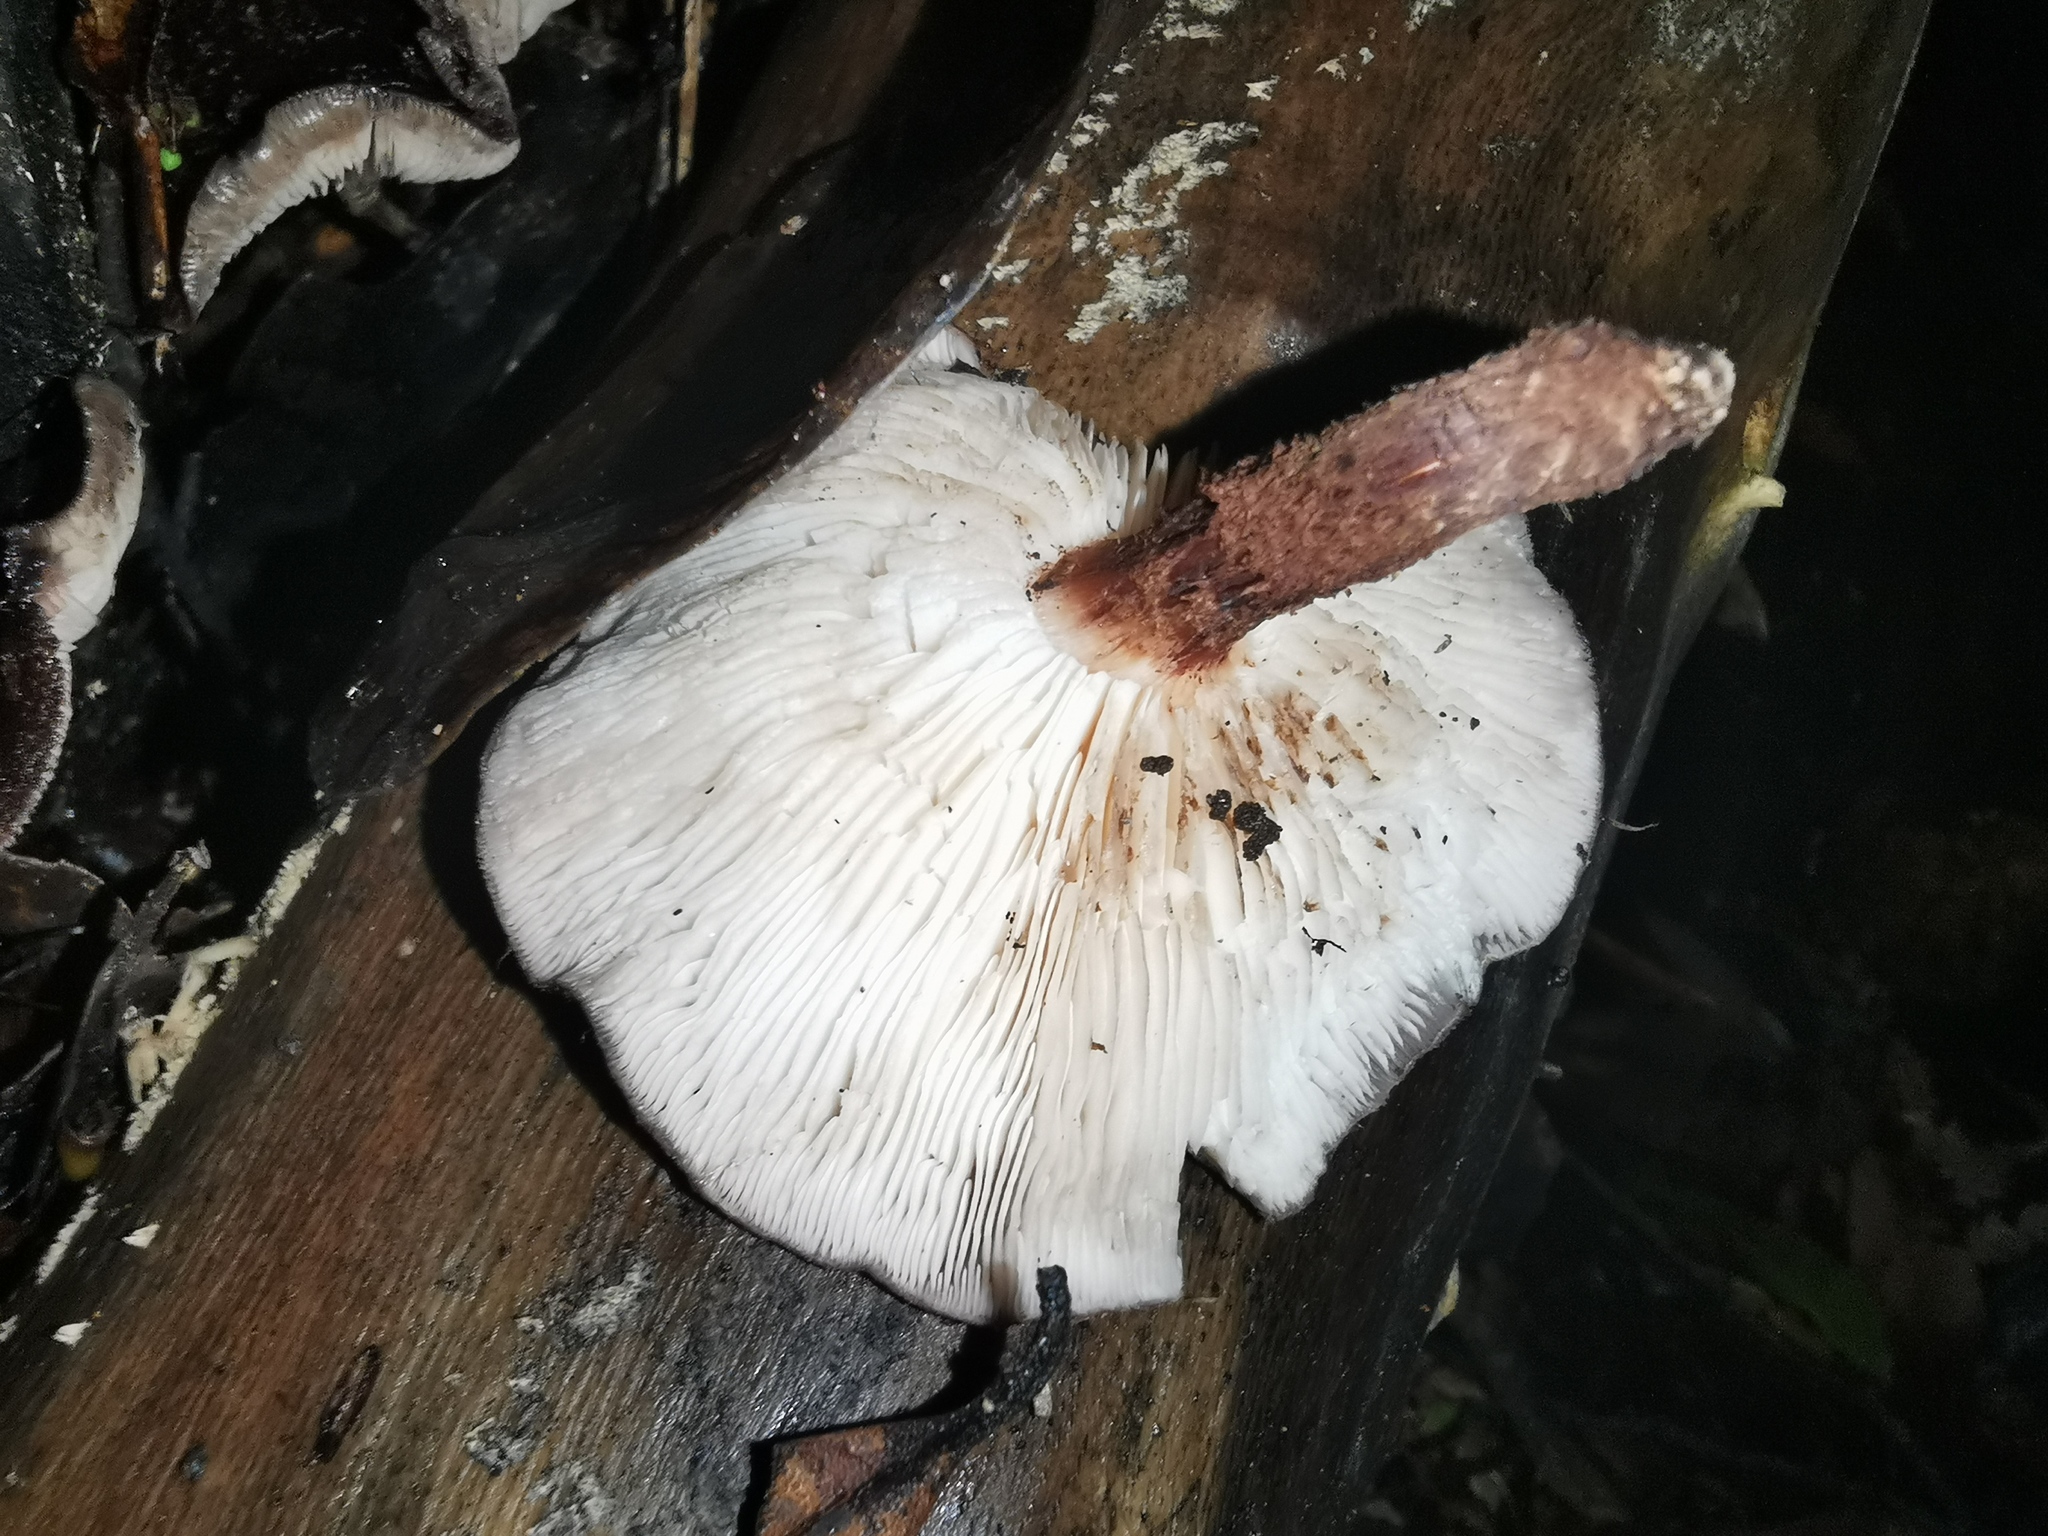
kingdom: Fungi
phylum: Basidiomycota
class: Agaricomycetes
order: Agaricales
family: Omphalotaceae
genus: Lentinula
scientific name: Lentinula novae-zelandiae
